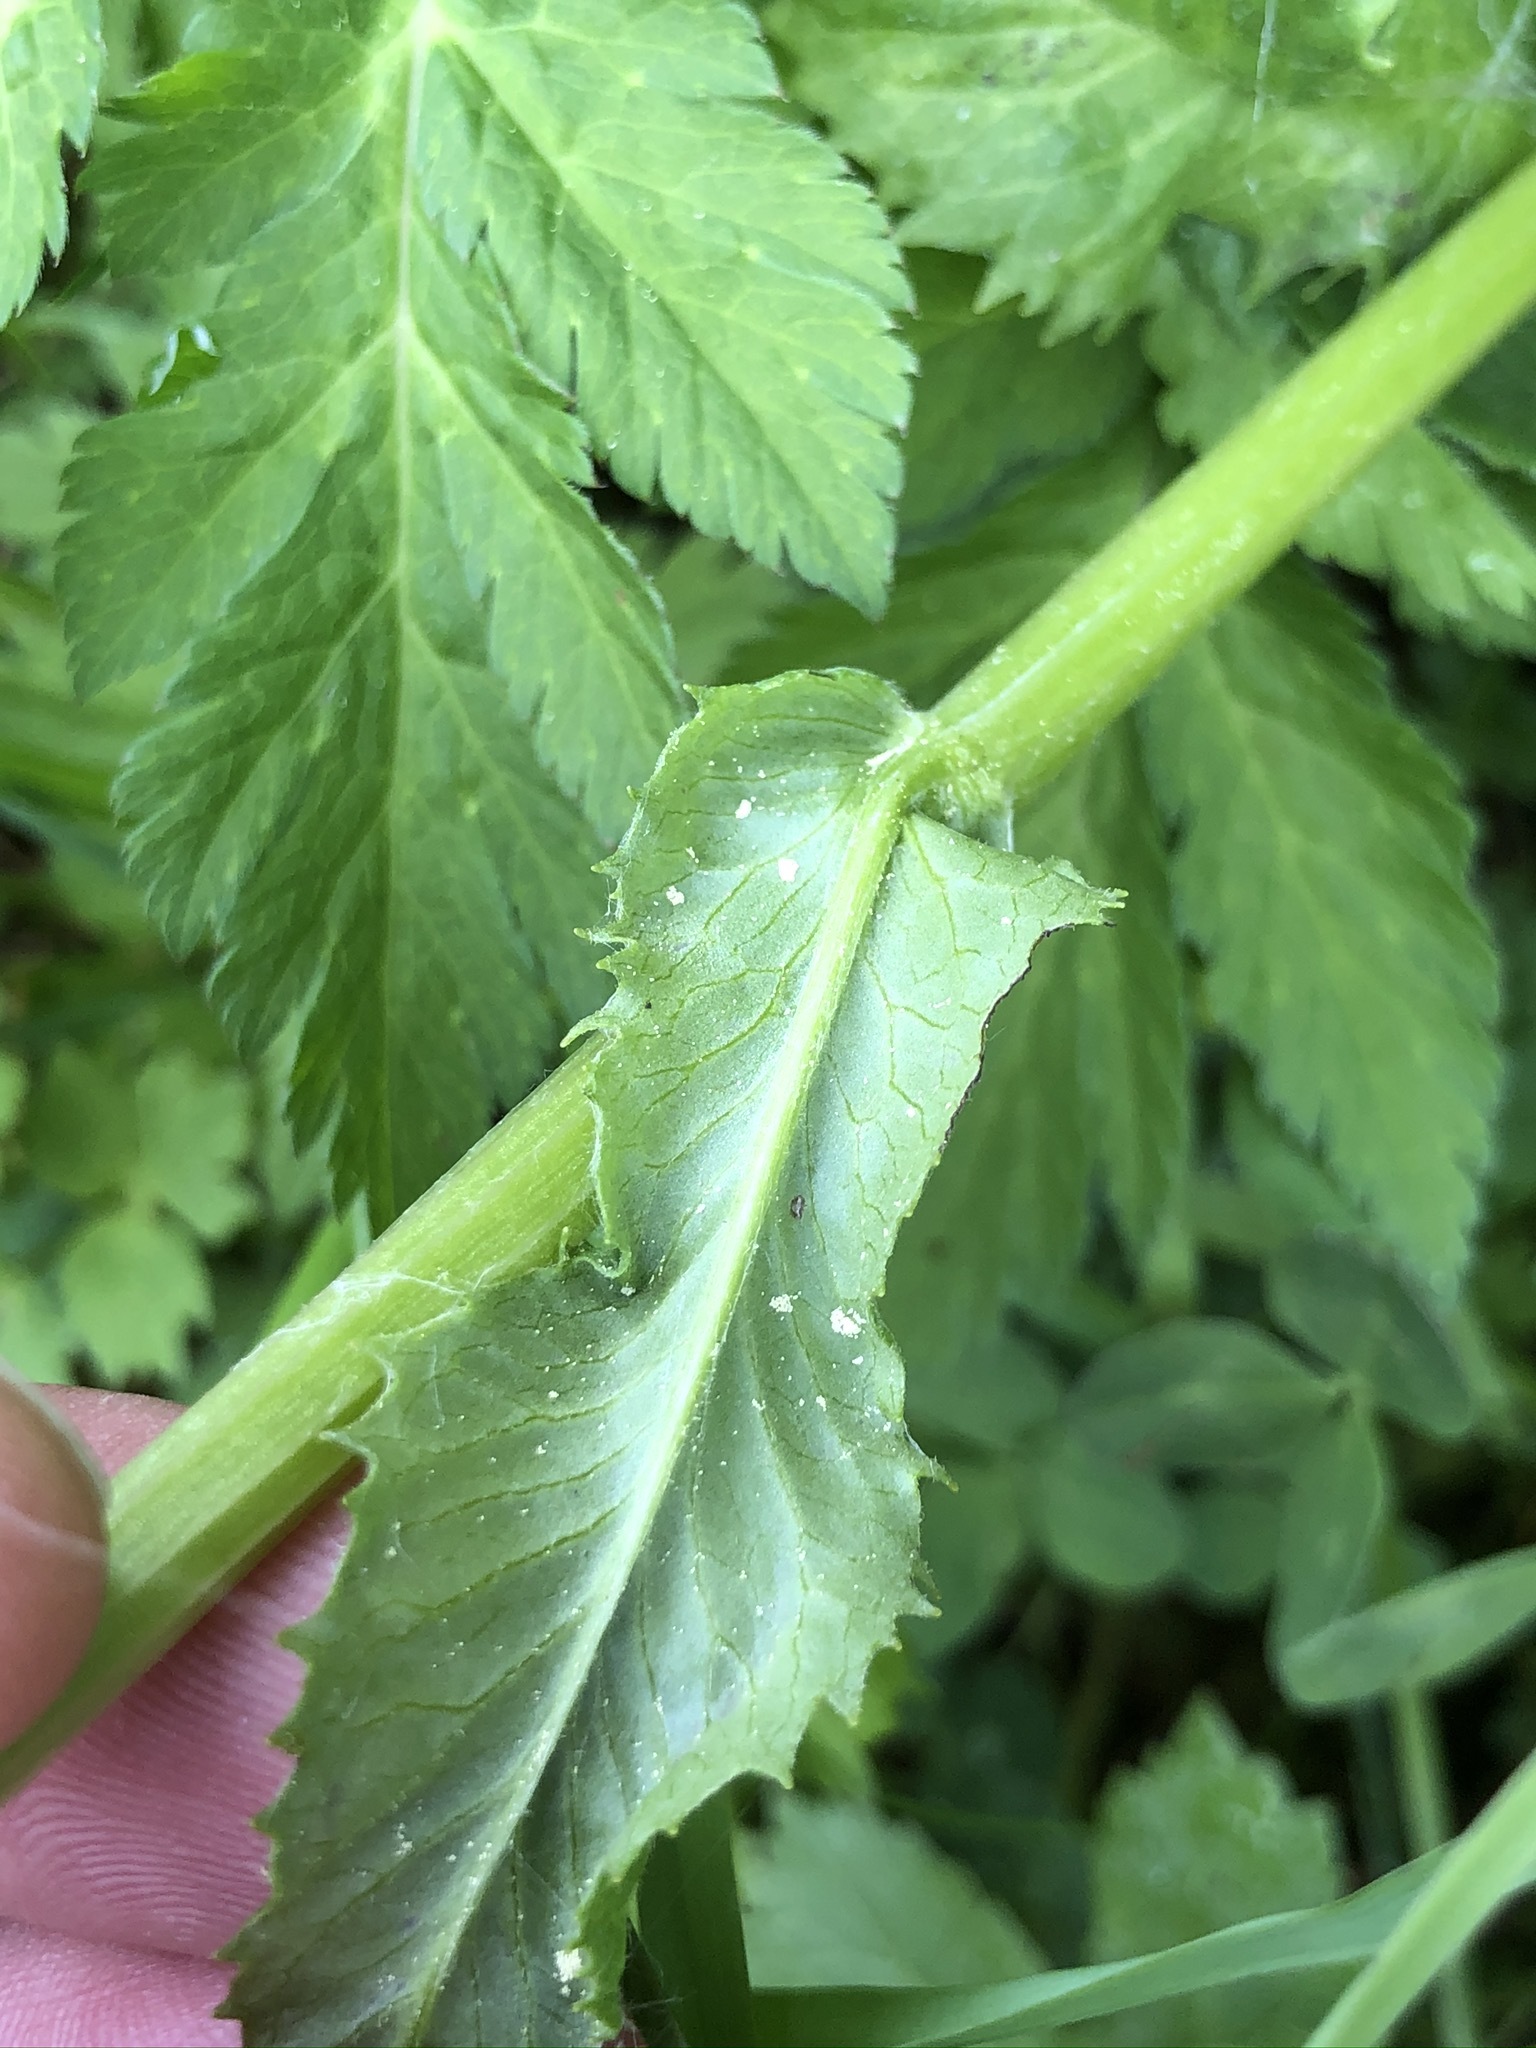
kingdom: Plantae
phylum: Tracheophyta
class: Magnoliopsida
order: Asterales
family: Asteraceae
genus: Tephroseris
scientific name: Tephroseris crispa
